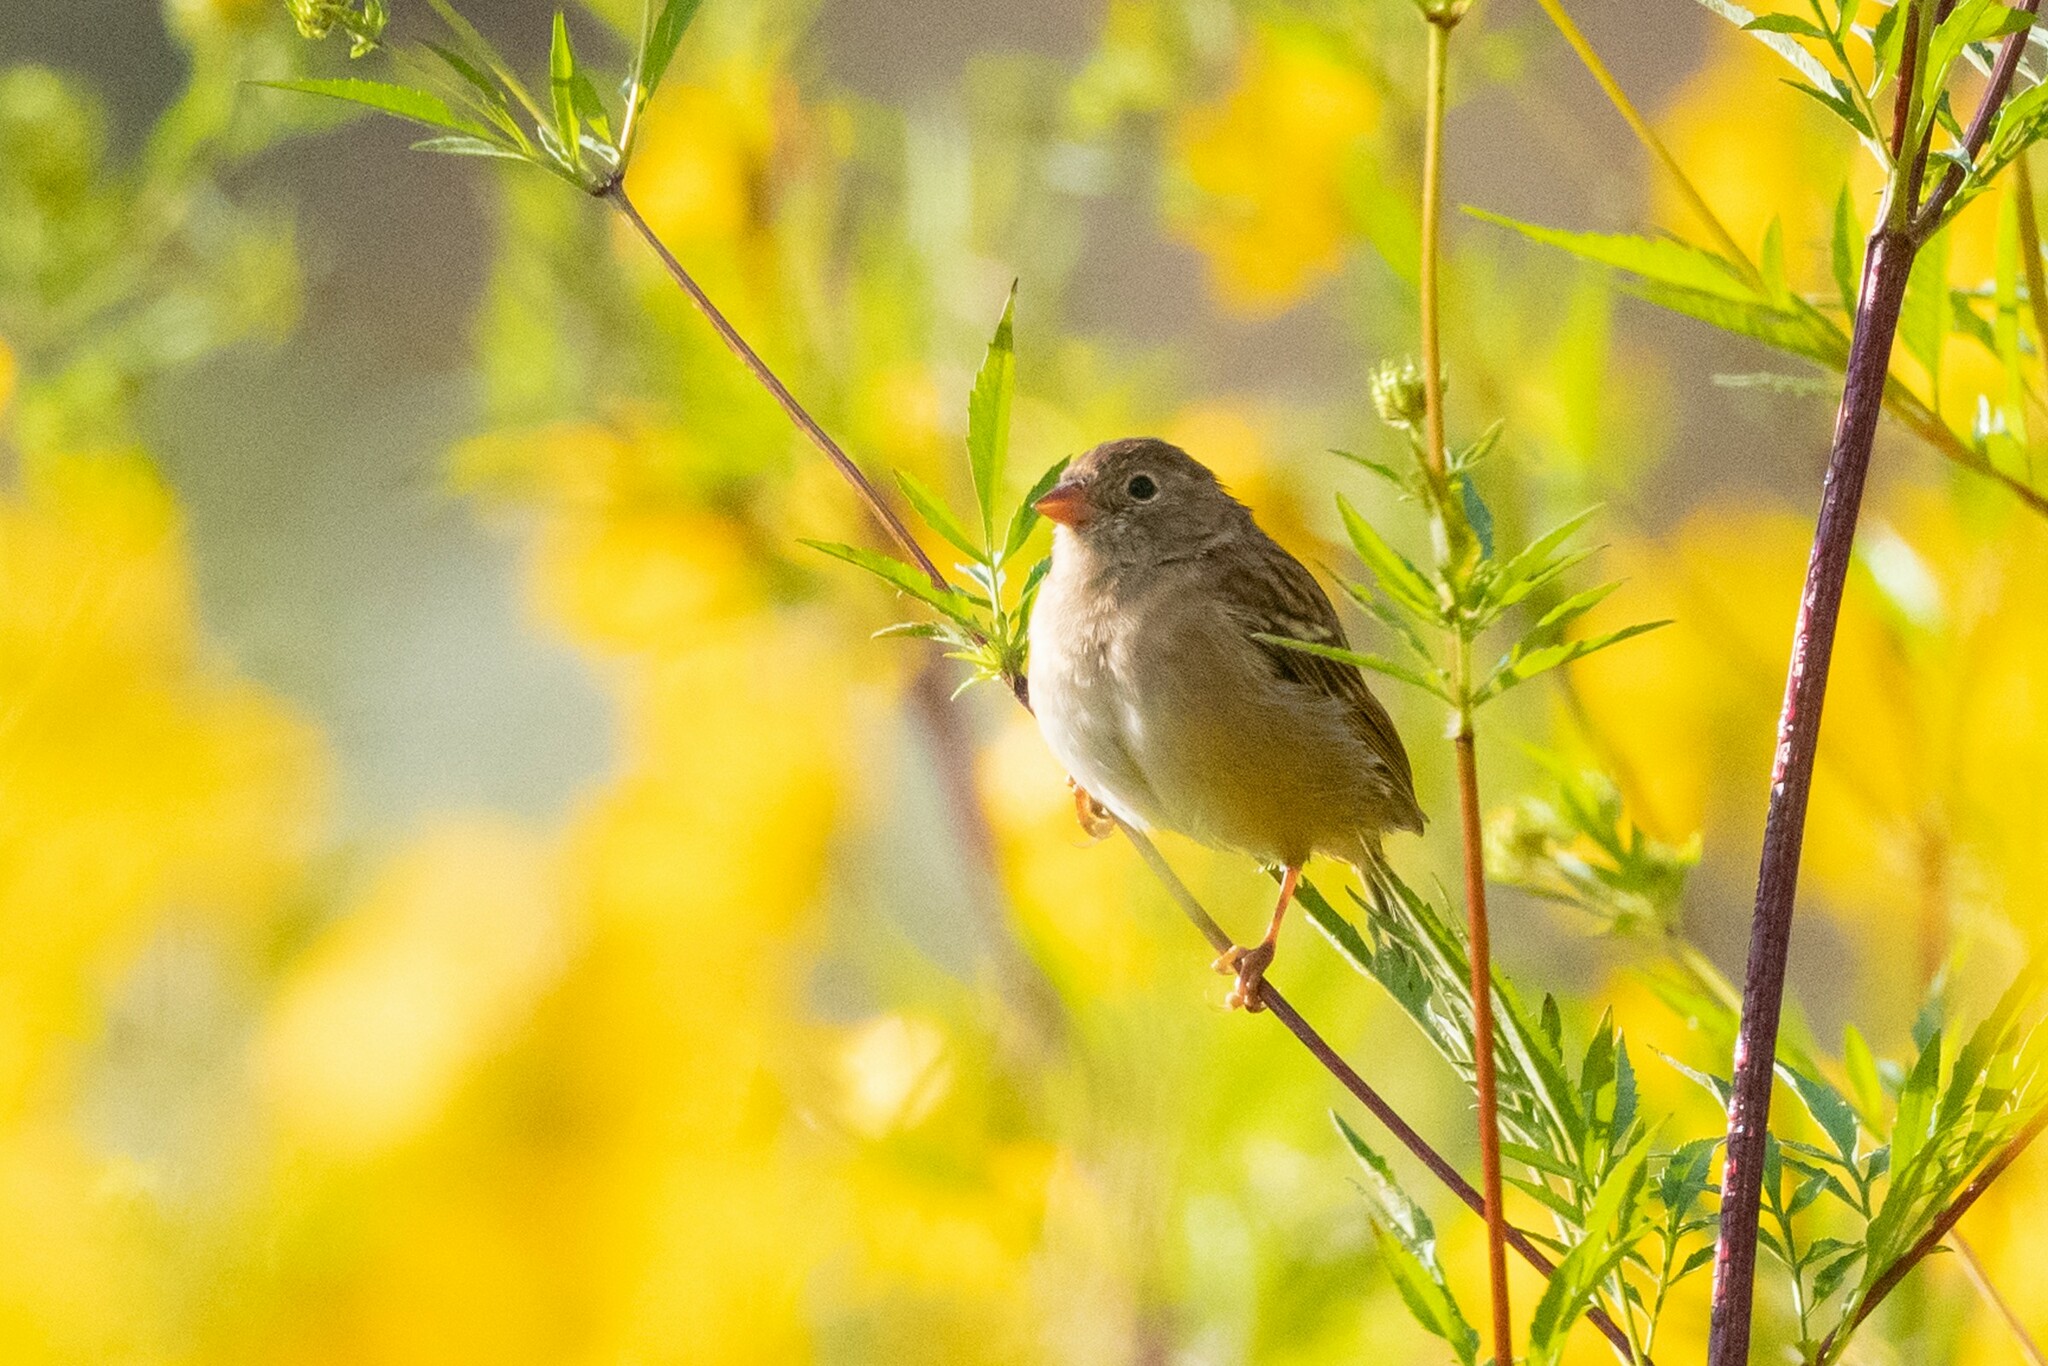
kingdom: Animalia
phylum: Chordata
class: Aves
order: Passeriformes
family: Passerellidae
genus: Spizella
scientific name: Spizella pusilla
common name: Field sparrow
